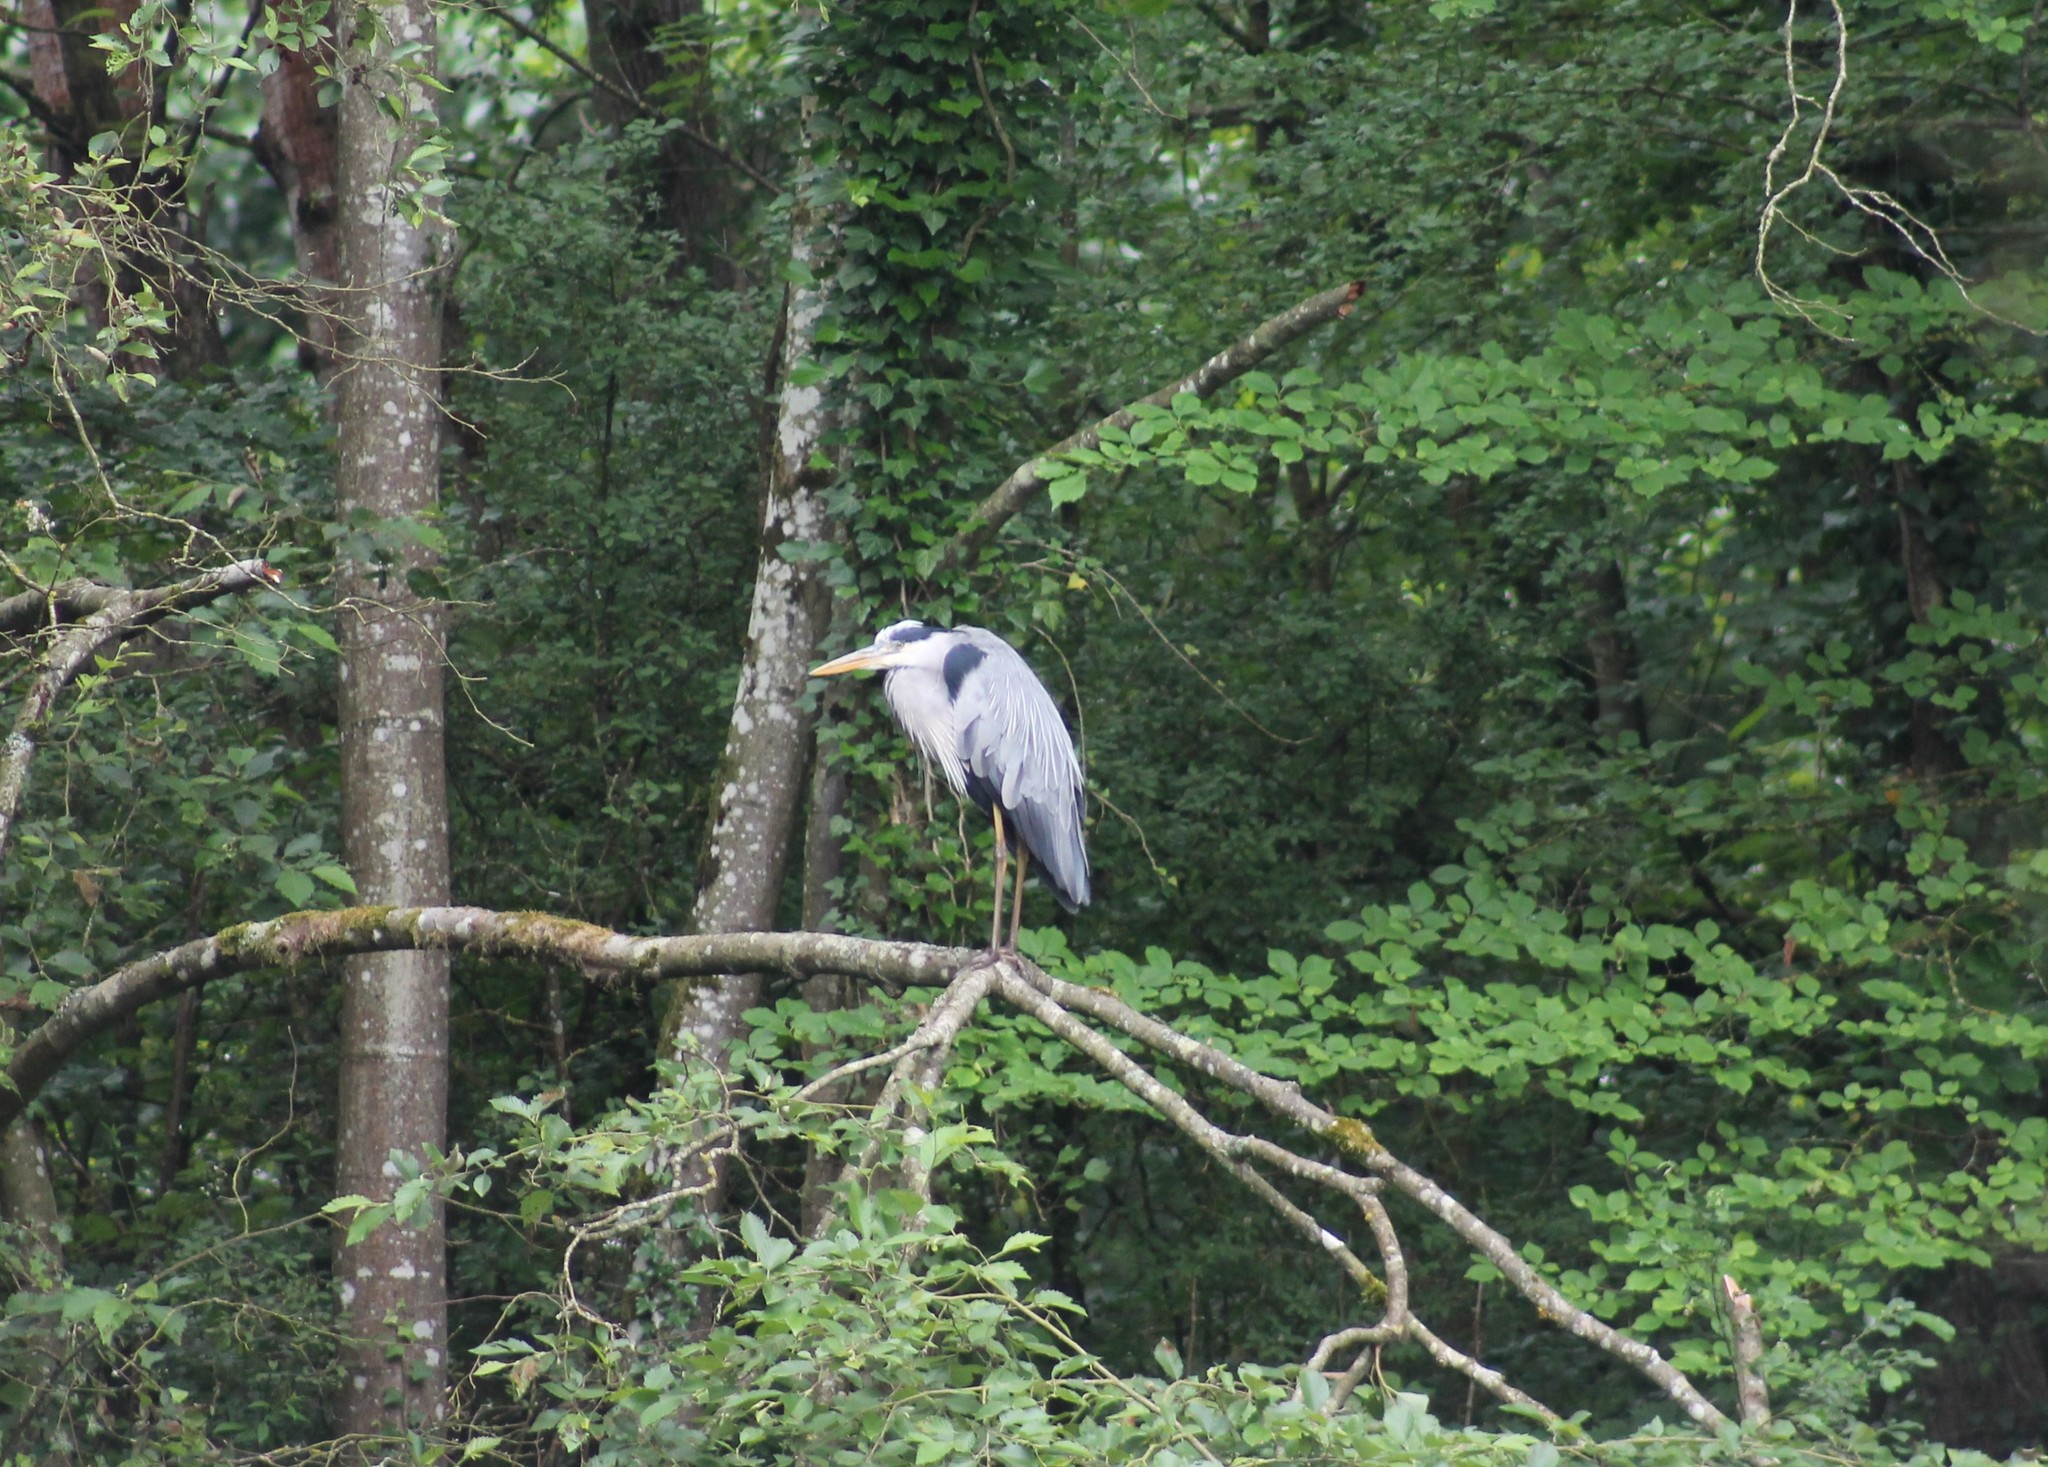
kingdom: Animalia
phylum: Chordata
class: Aves
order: Pelecaniformes
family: Ardeidae
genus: Ardea
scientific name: Ardea cinerea
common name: Grey heron
